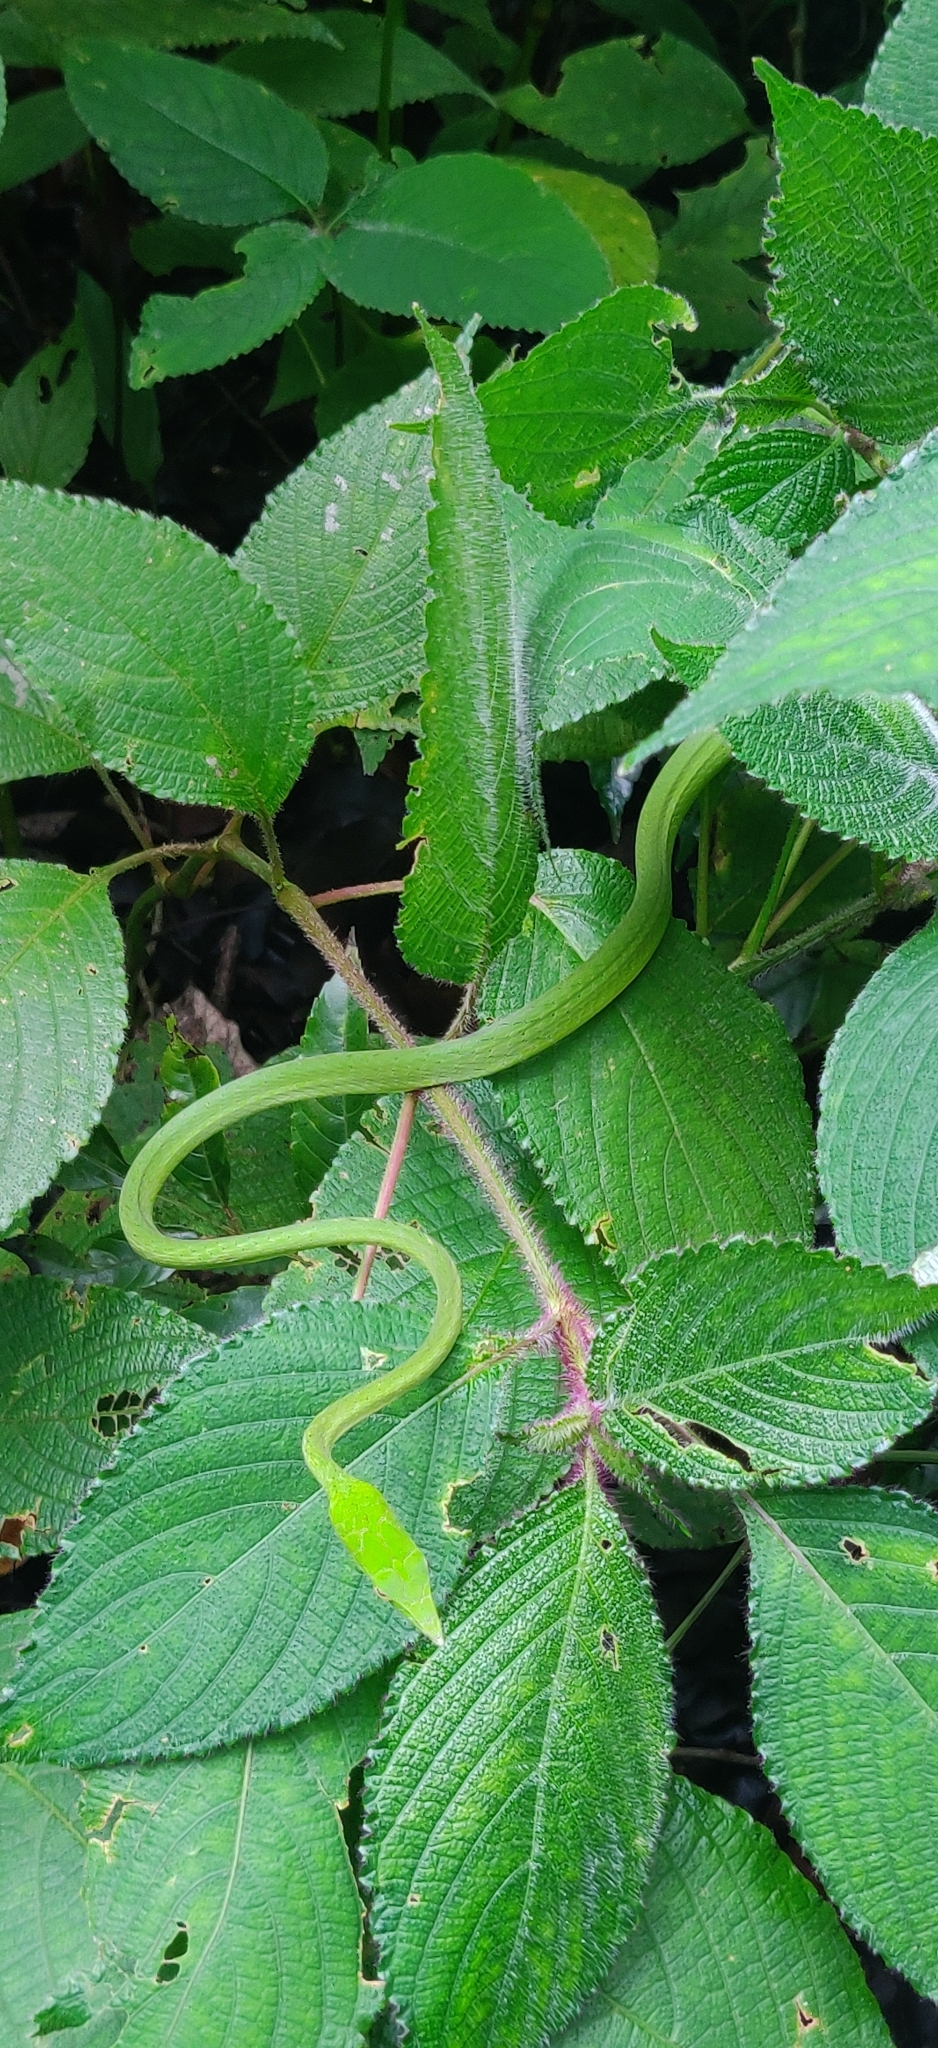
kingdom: Animalia
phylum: Chordata
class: Squamata
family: Colubridae
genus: Ahaetulla
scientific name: Ahaetulla borealis
